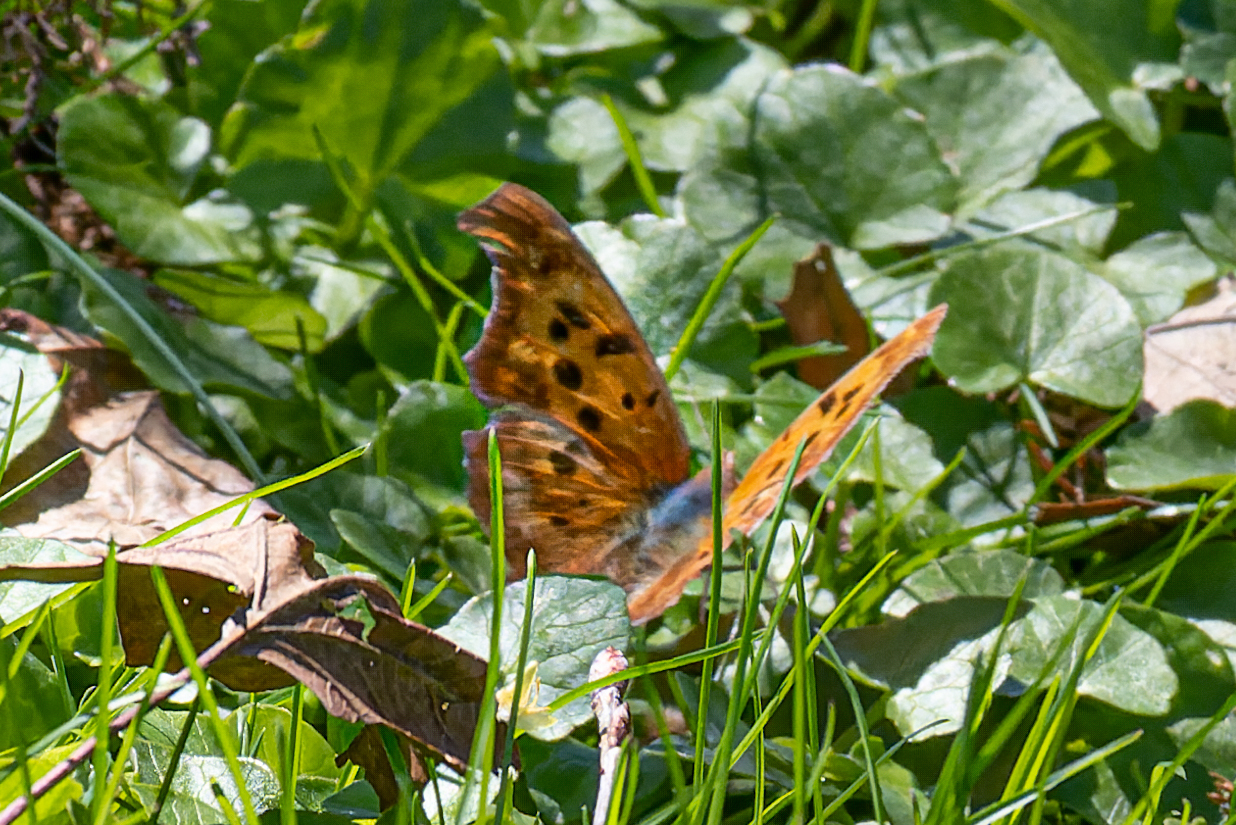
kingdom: Animalia
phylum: Arthropoda
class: Insecta
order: Lepidoptera
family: Nymphalidae
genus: Polygonia
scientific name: Polygonia interrogationis
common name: Question mark
